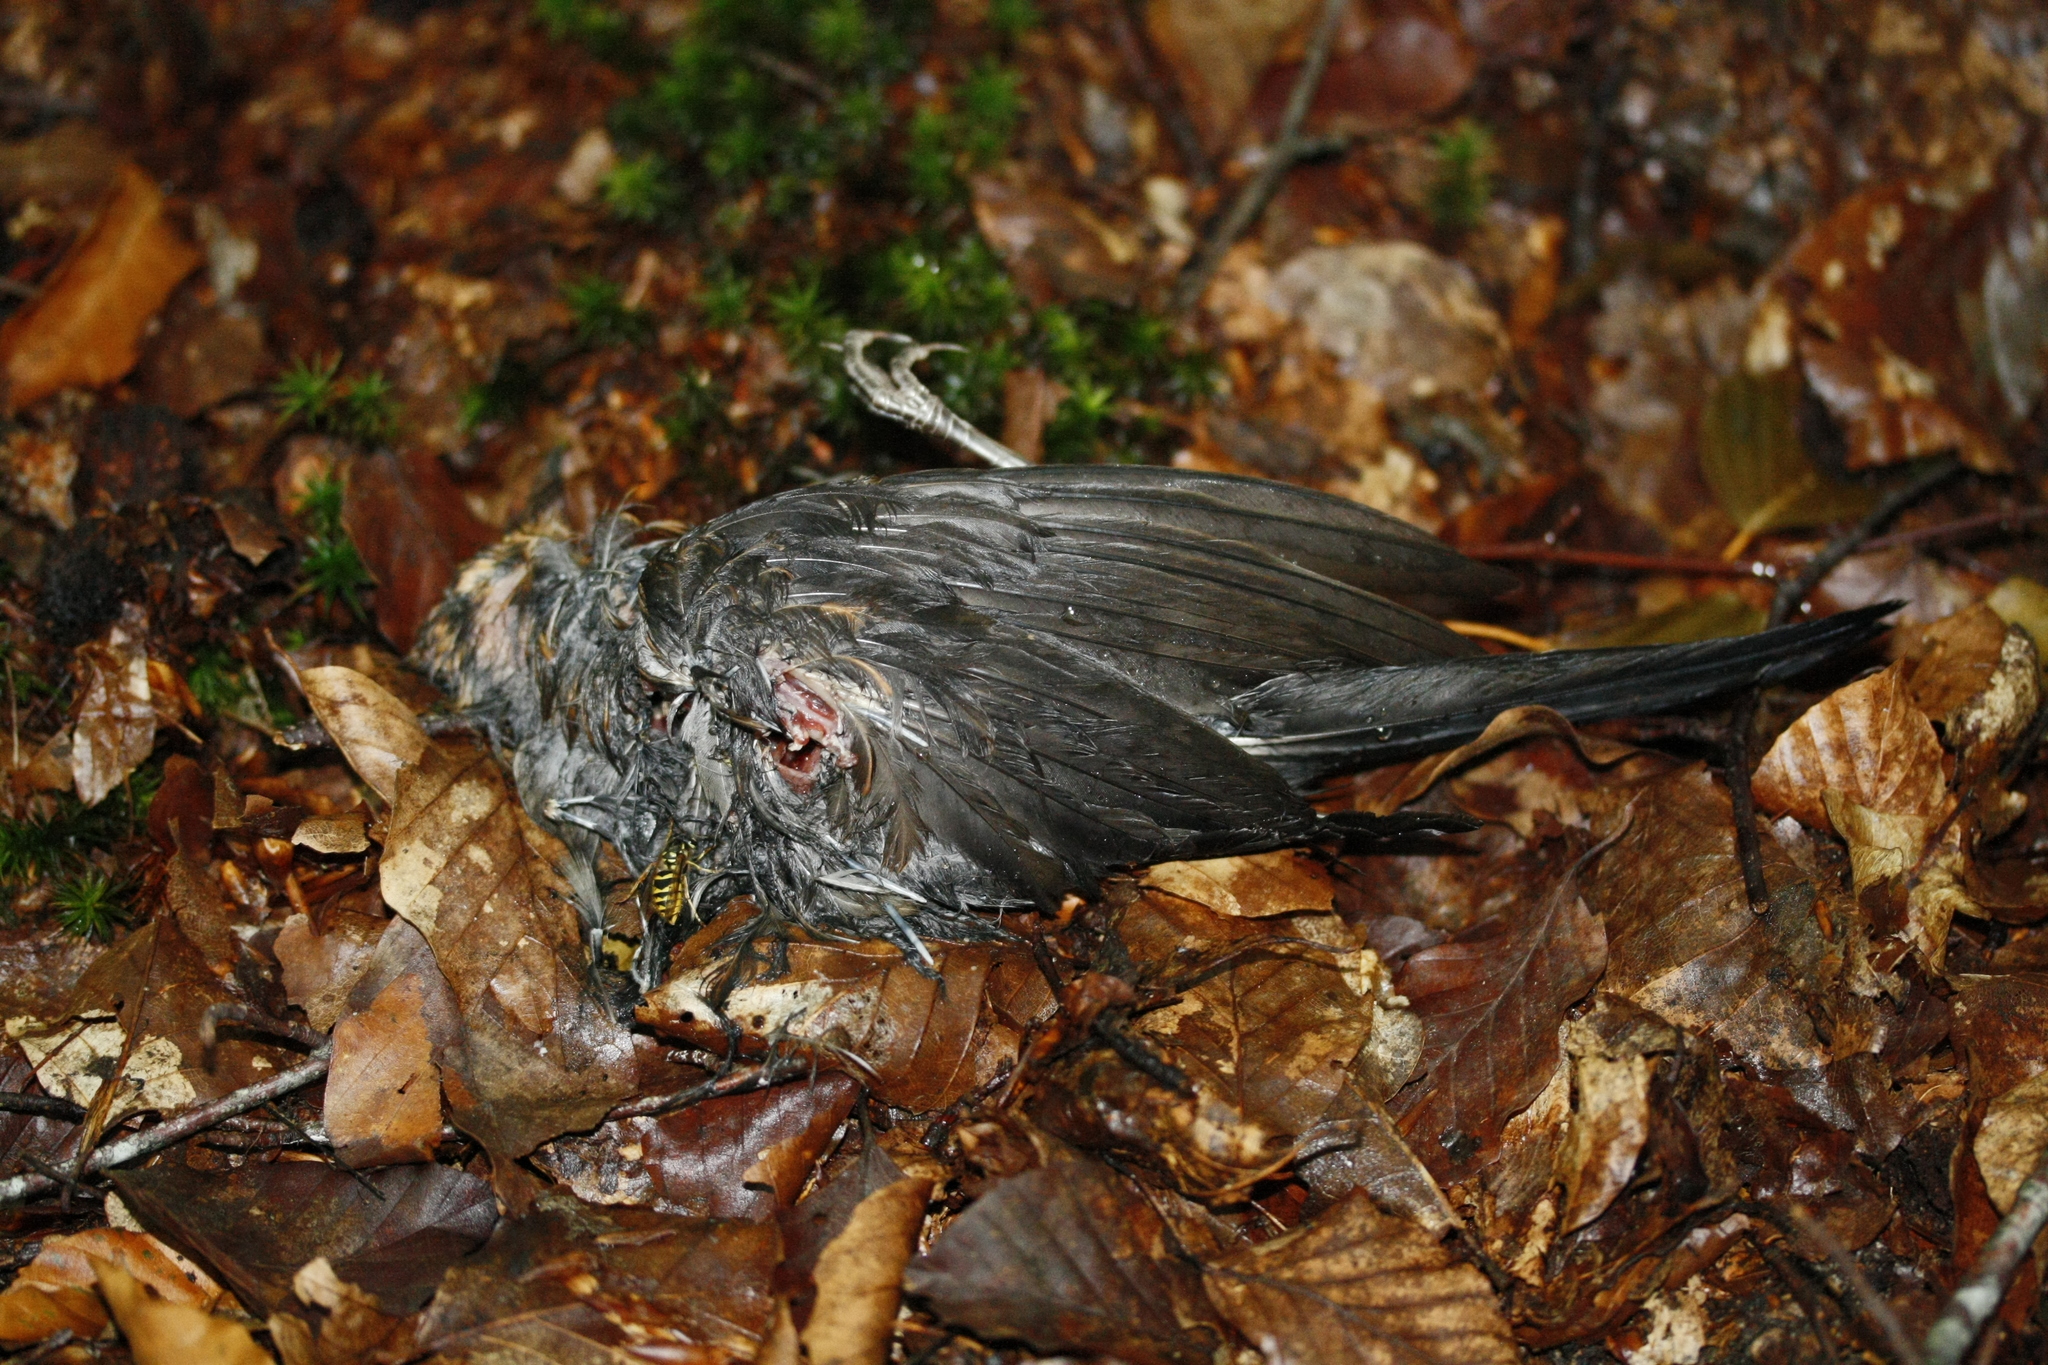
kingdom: Animalia
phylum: Chordata
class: Aves
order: Passeriformes
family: Turdidae
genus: Turdus
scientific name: Turdus merula
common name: Common blackbird
